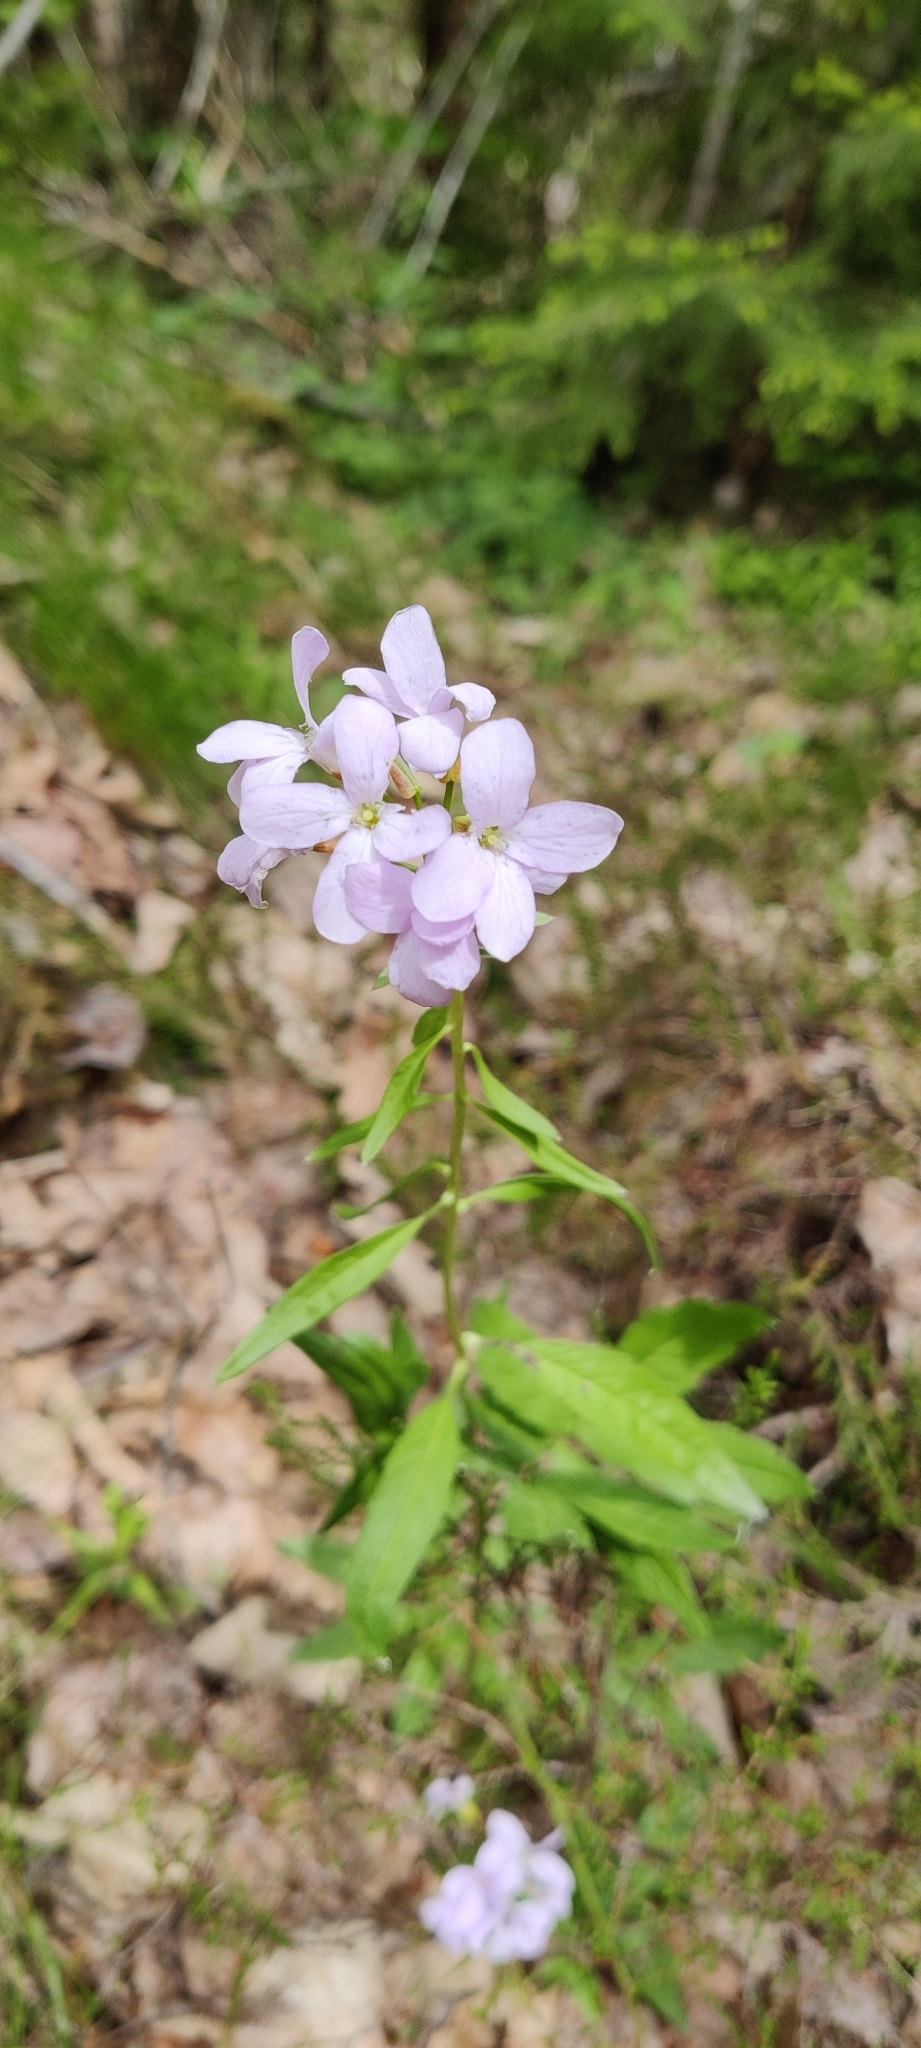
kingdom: Plantae
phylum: Tracheophyta
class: Magnoliopsida
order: Brassicales
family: Brassicaceae
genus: Cardamine
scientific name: Cardamine bulbifera
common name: Coralroot bittercress
